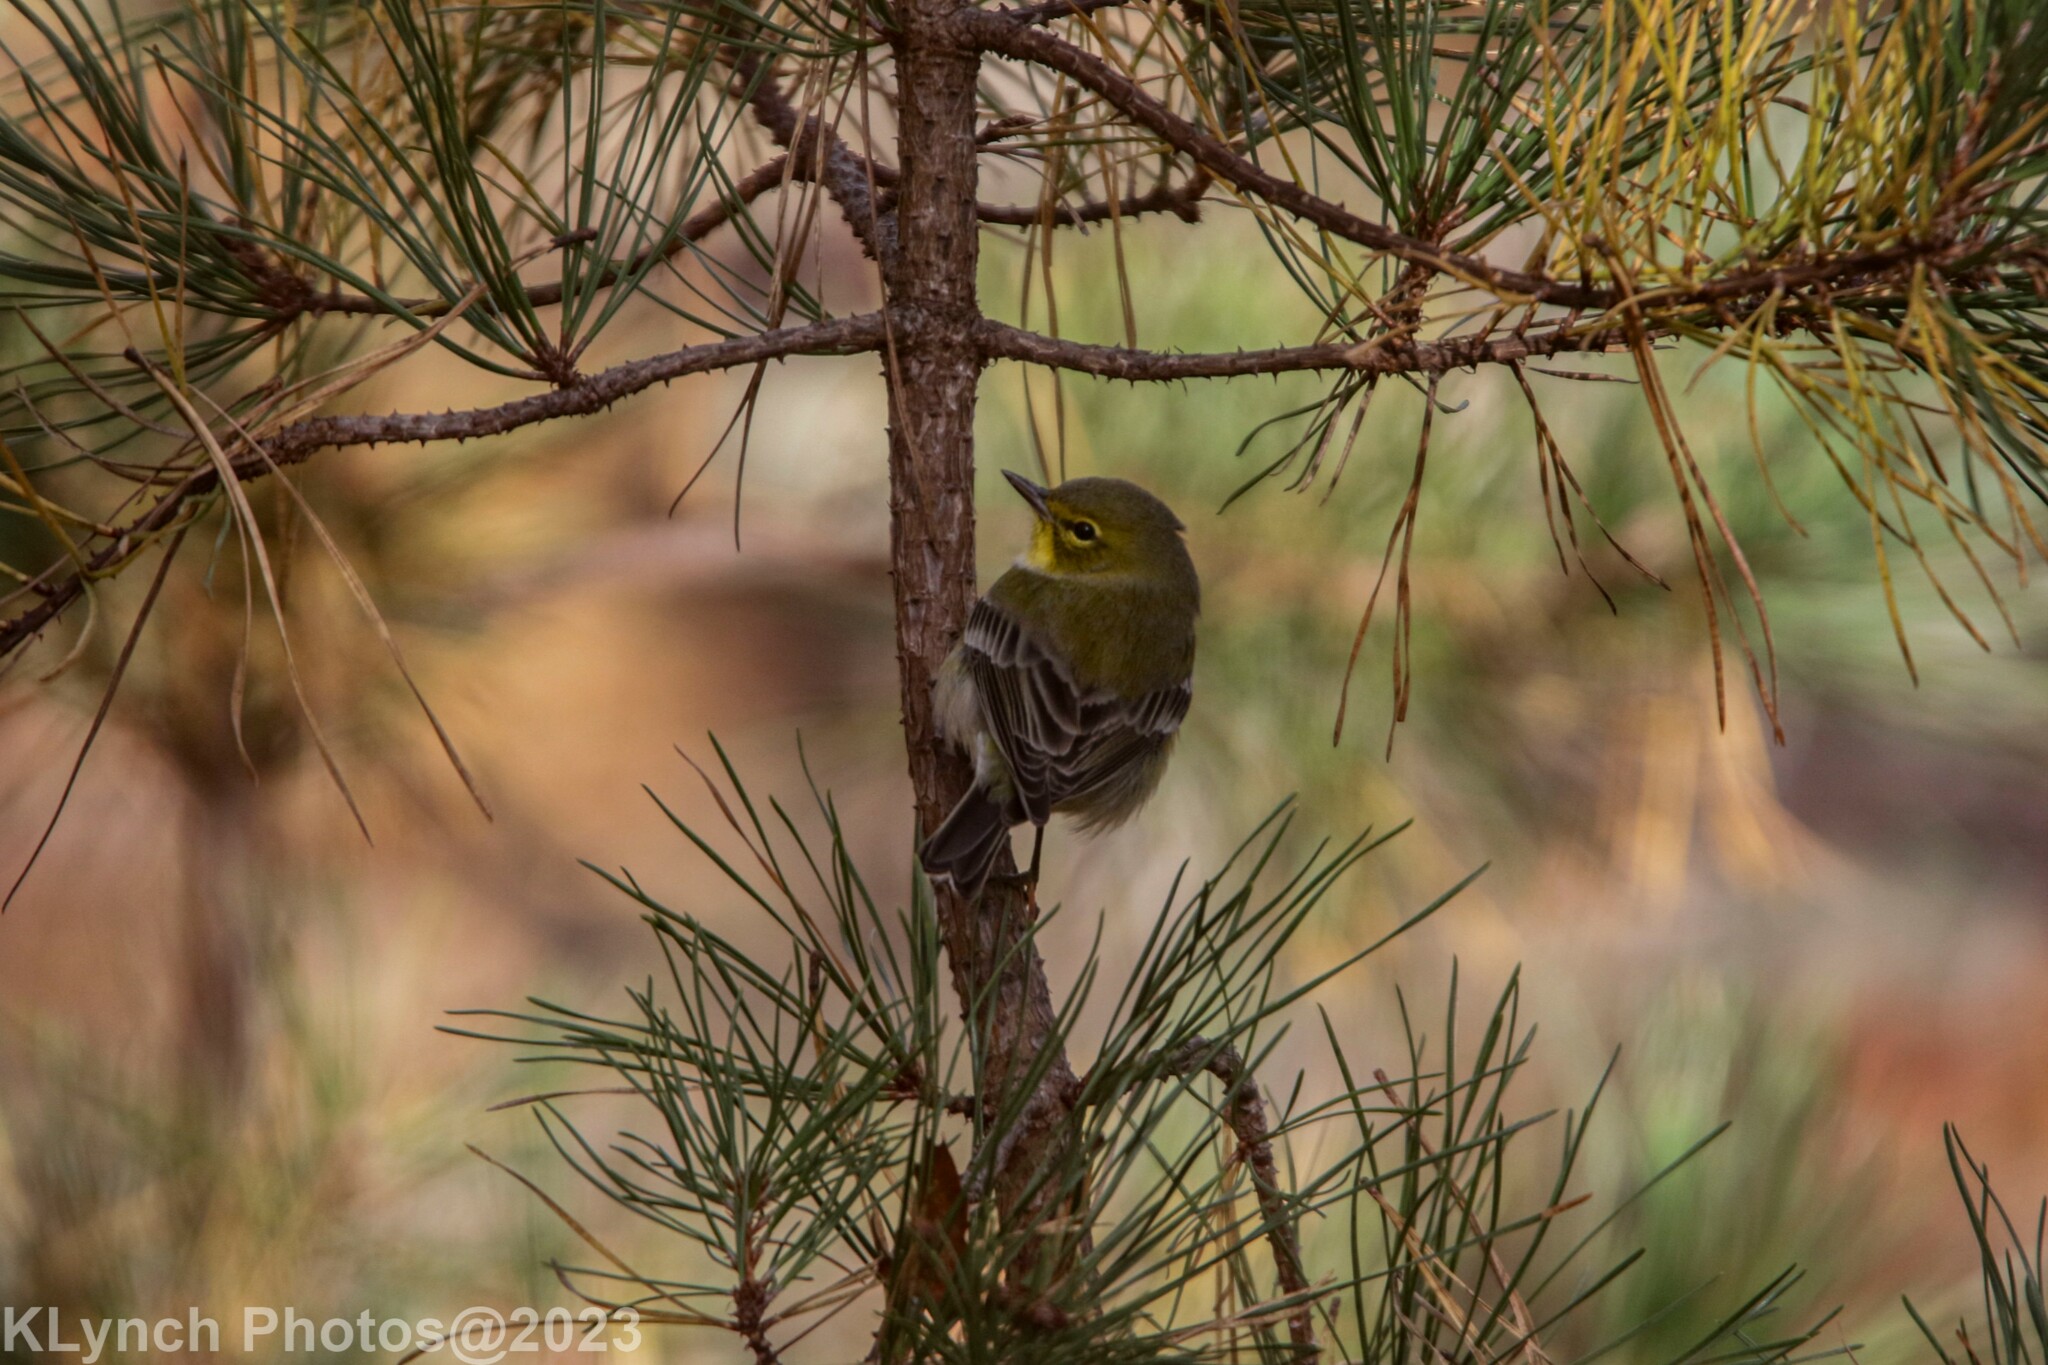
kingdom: Animalia
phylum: Chordata
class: Aves
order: Passeriformes
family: Parulidae
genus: Setophaga
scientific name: Setophaga pinus
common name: Pine warbler
